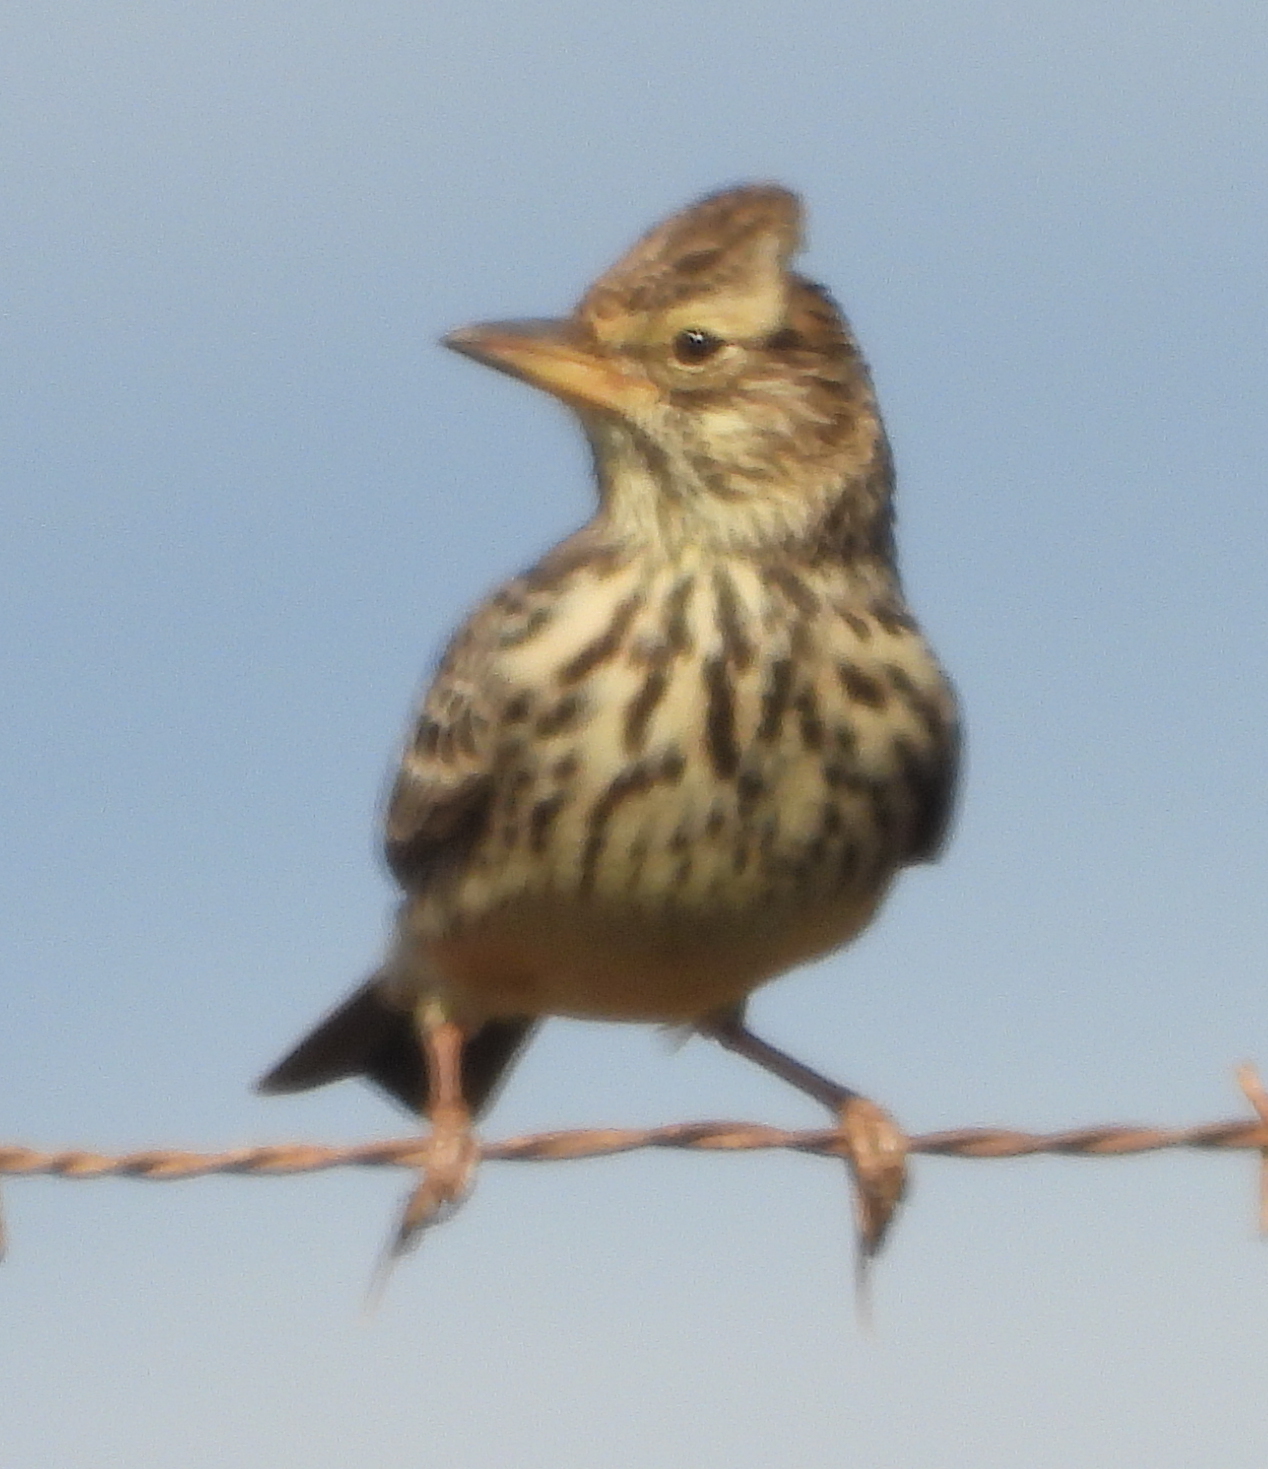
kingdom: Animalia
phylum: Chordata
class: Aves
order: Passeriformes
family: Alaudidae
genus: Galerida
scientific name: Galerida magnirostris
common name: Large-billed lark
